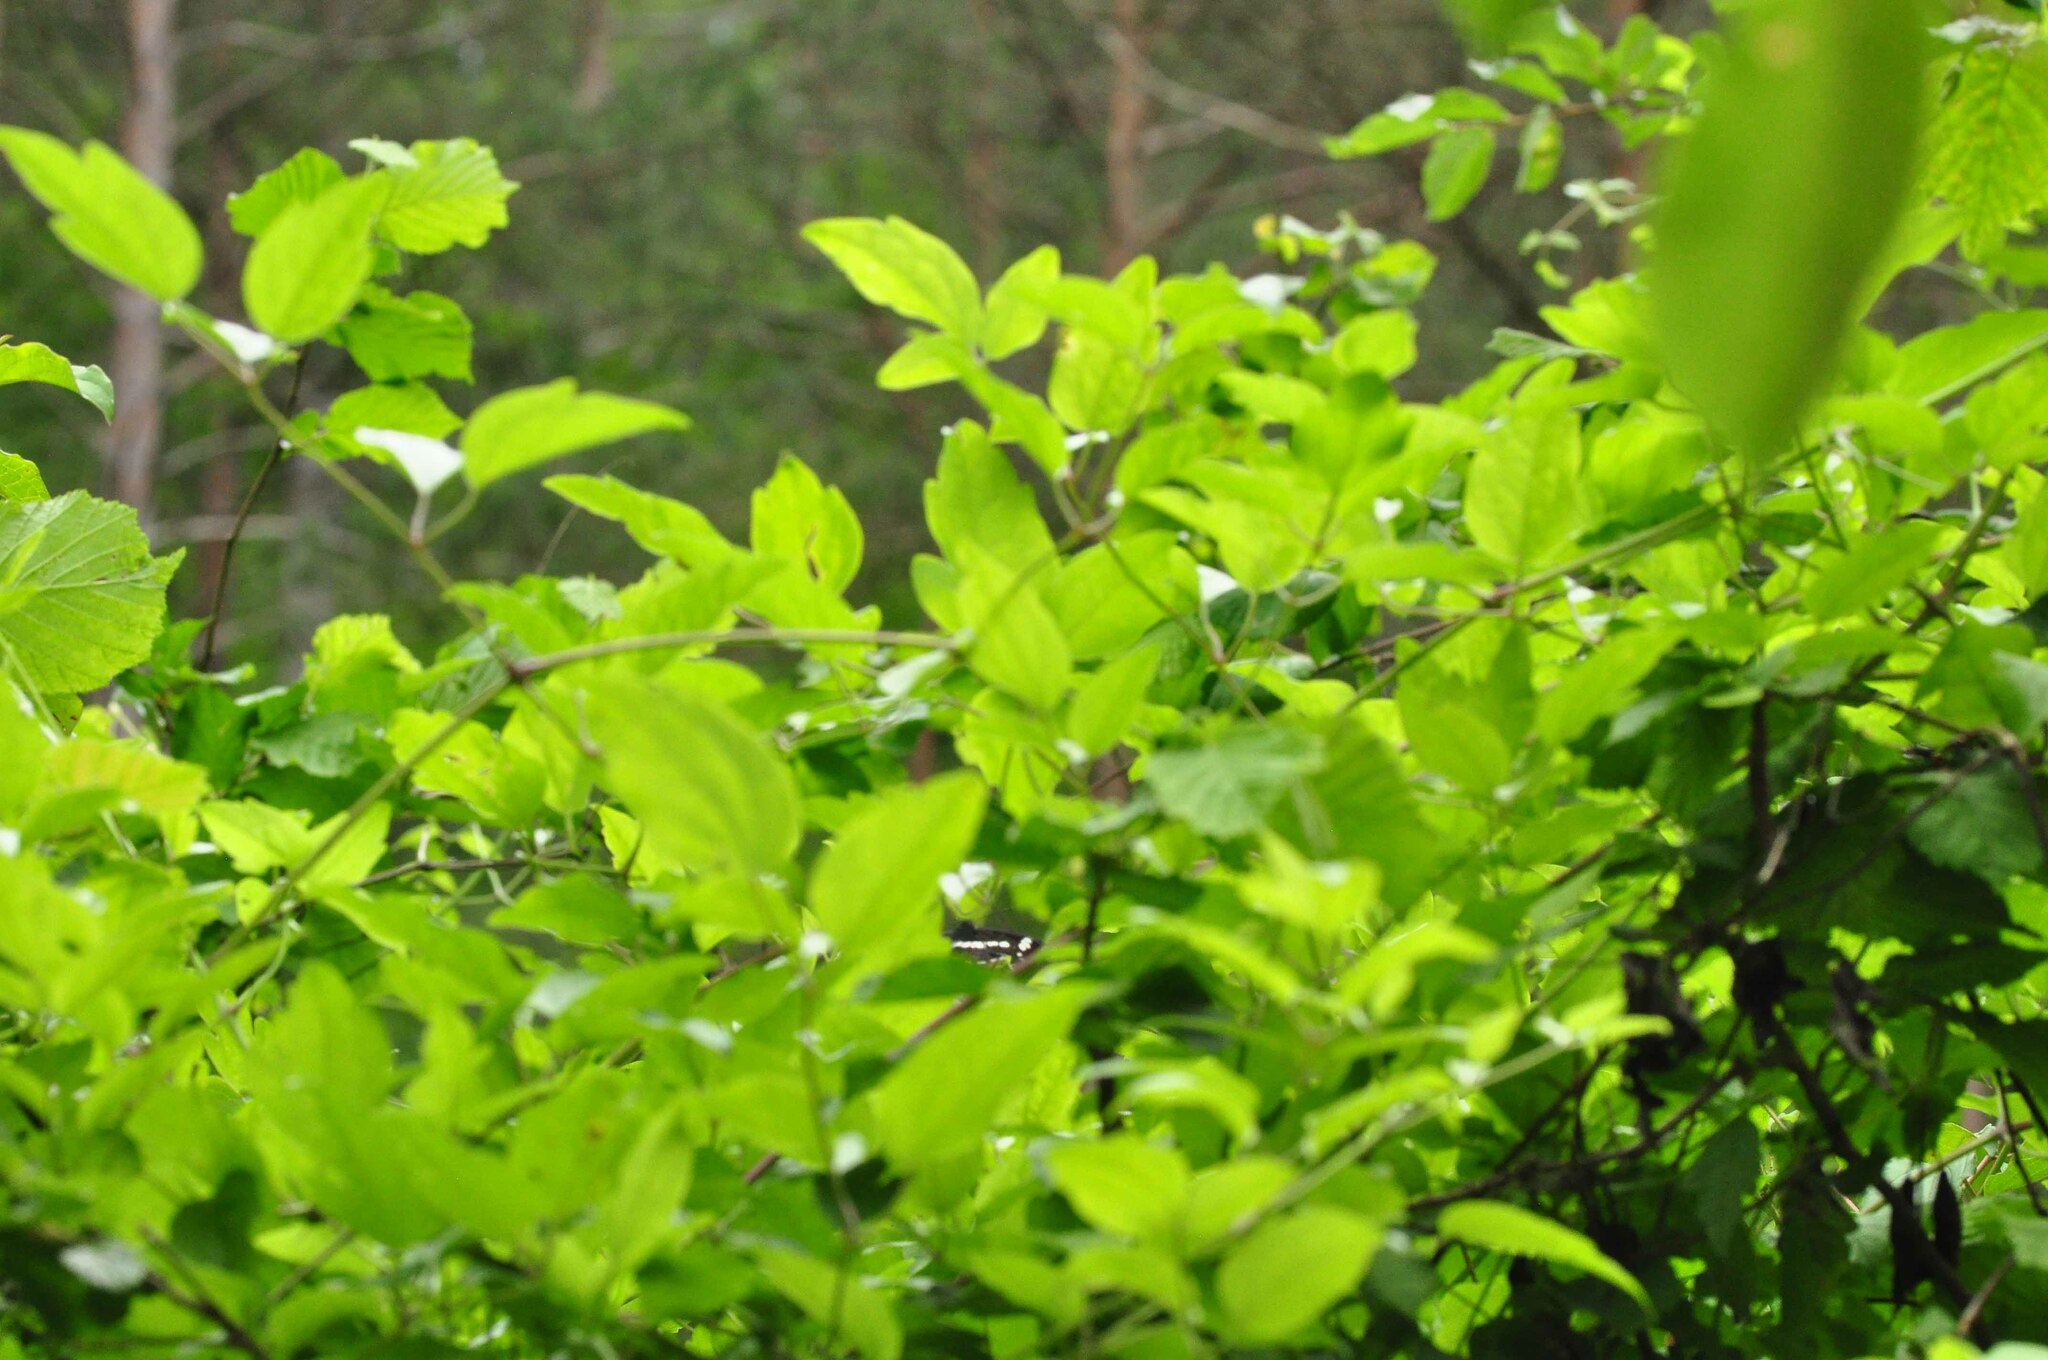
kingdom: Animalia
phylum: Arthropoda
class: Insecta
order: Lepidoptera
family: Nymphalidae
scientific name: Nymphalidae
